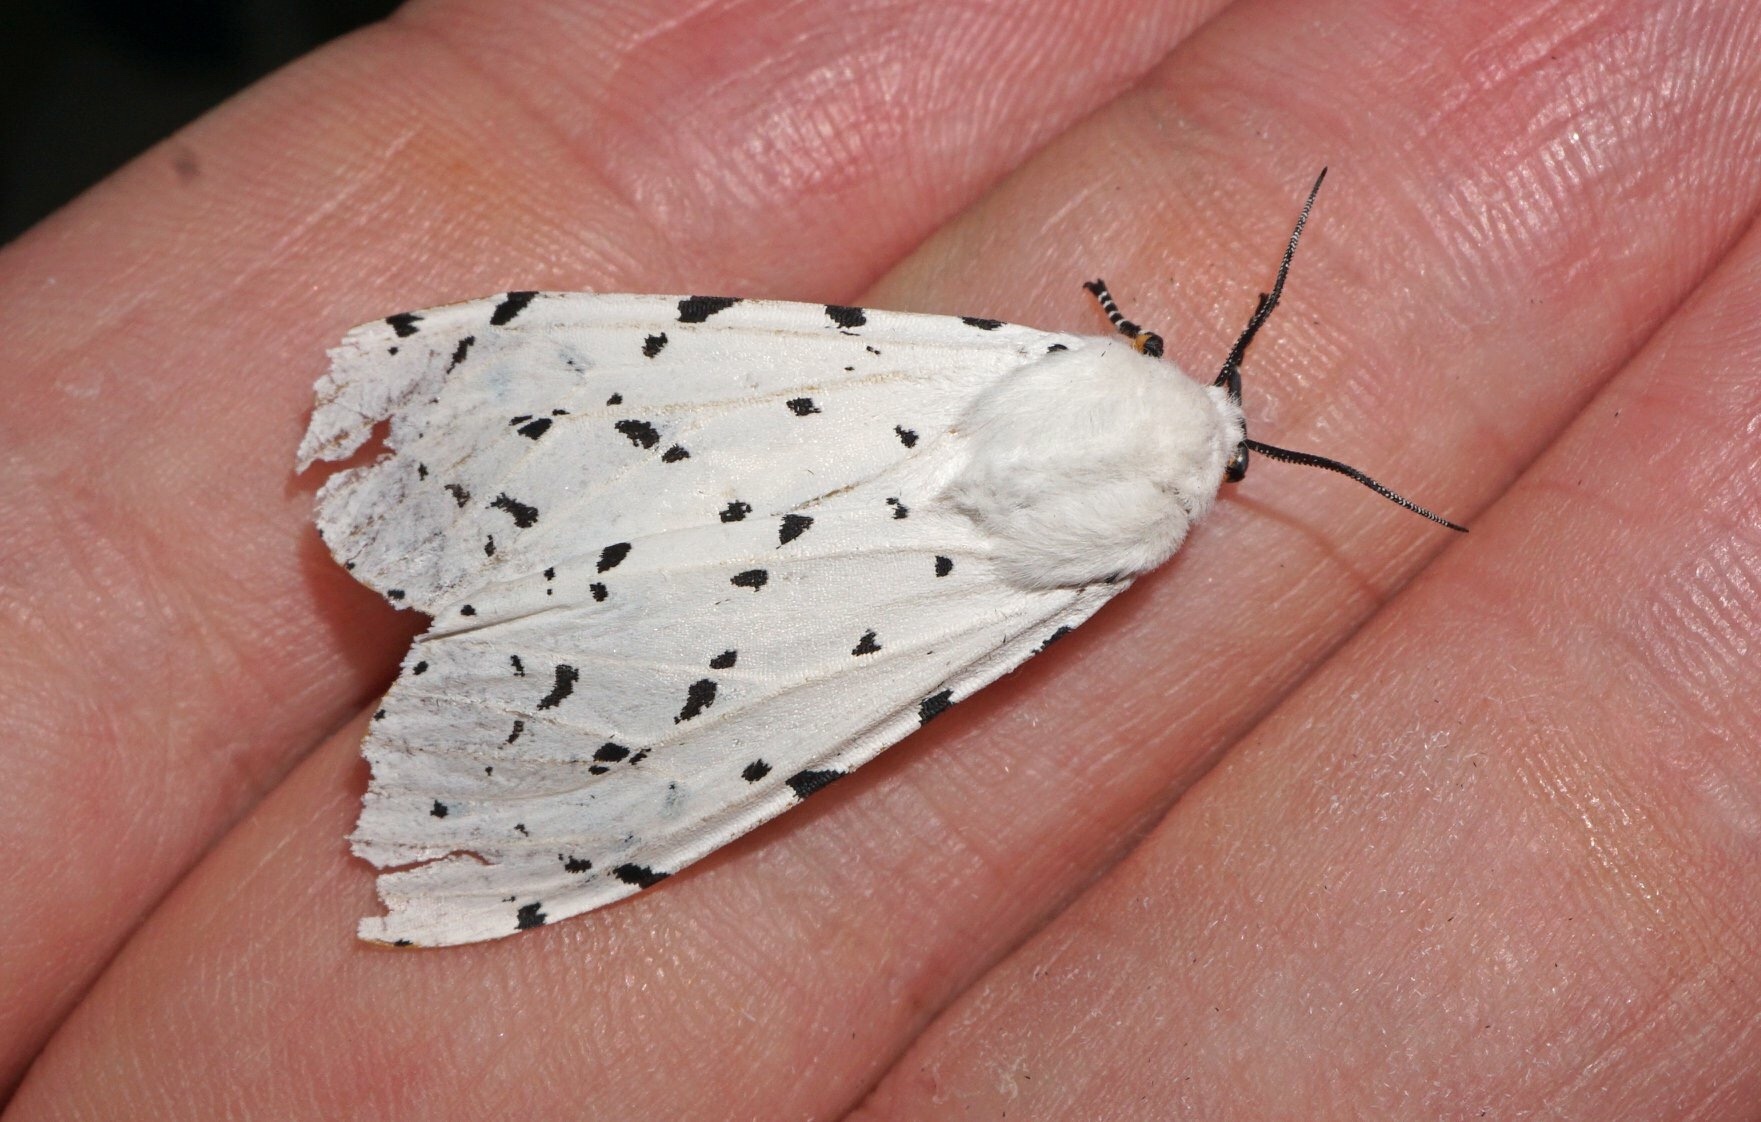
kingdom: Animalia
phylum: Arthropoda
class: Insecta
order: Lepidoptera
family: Erebidae
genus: Estigmene
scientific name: Estigmene acrea
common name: Salt marsh moth
